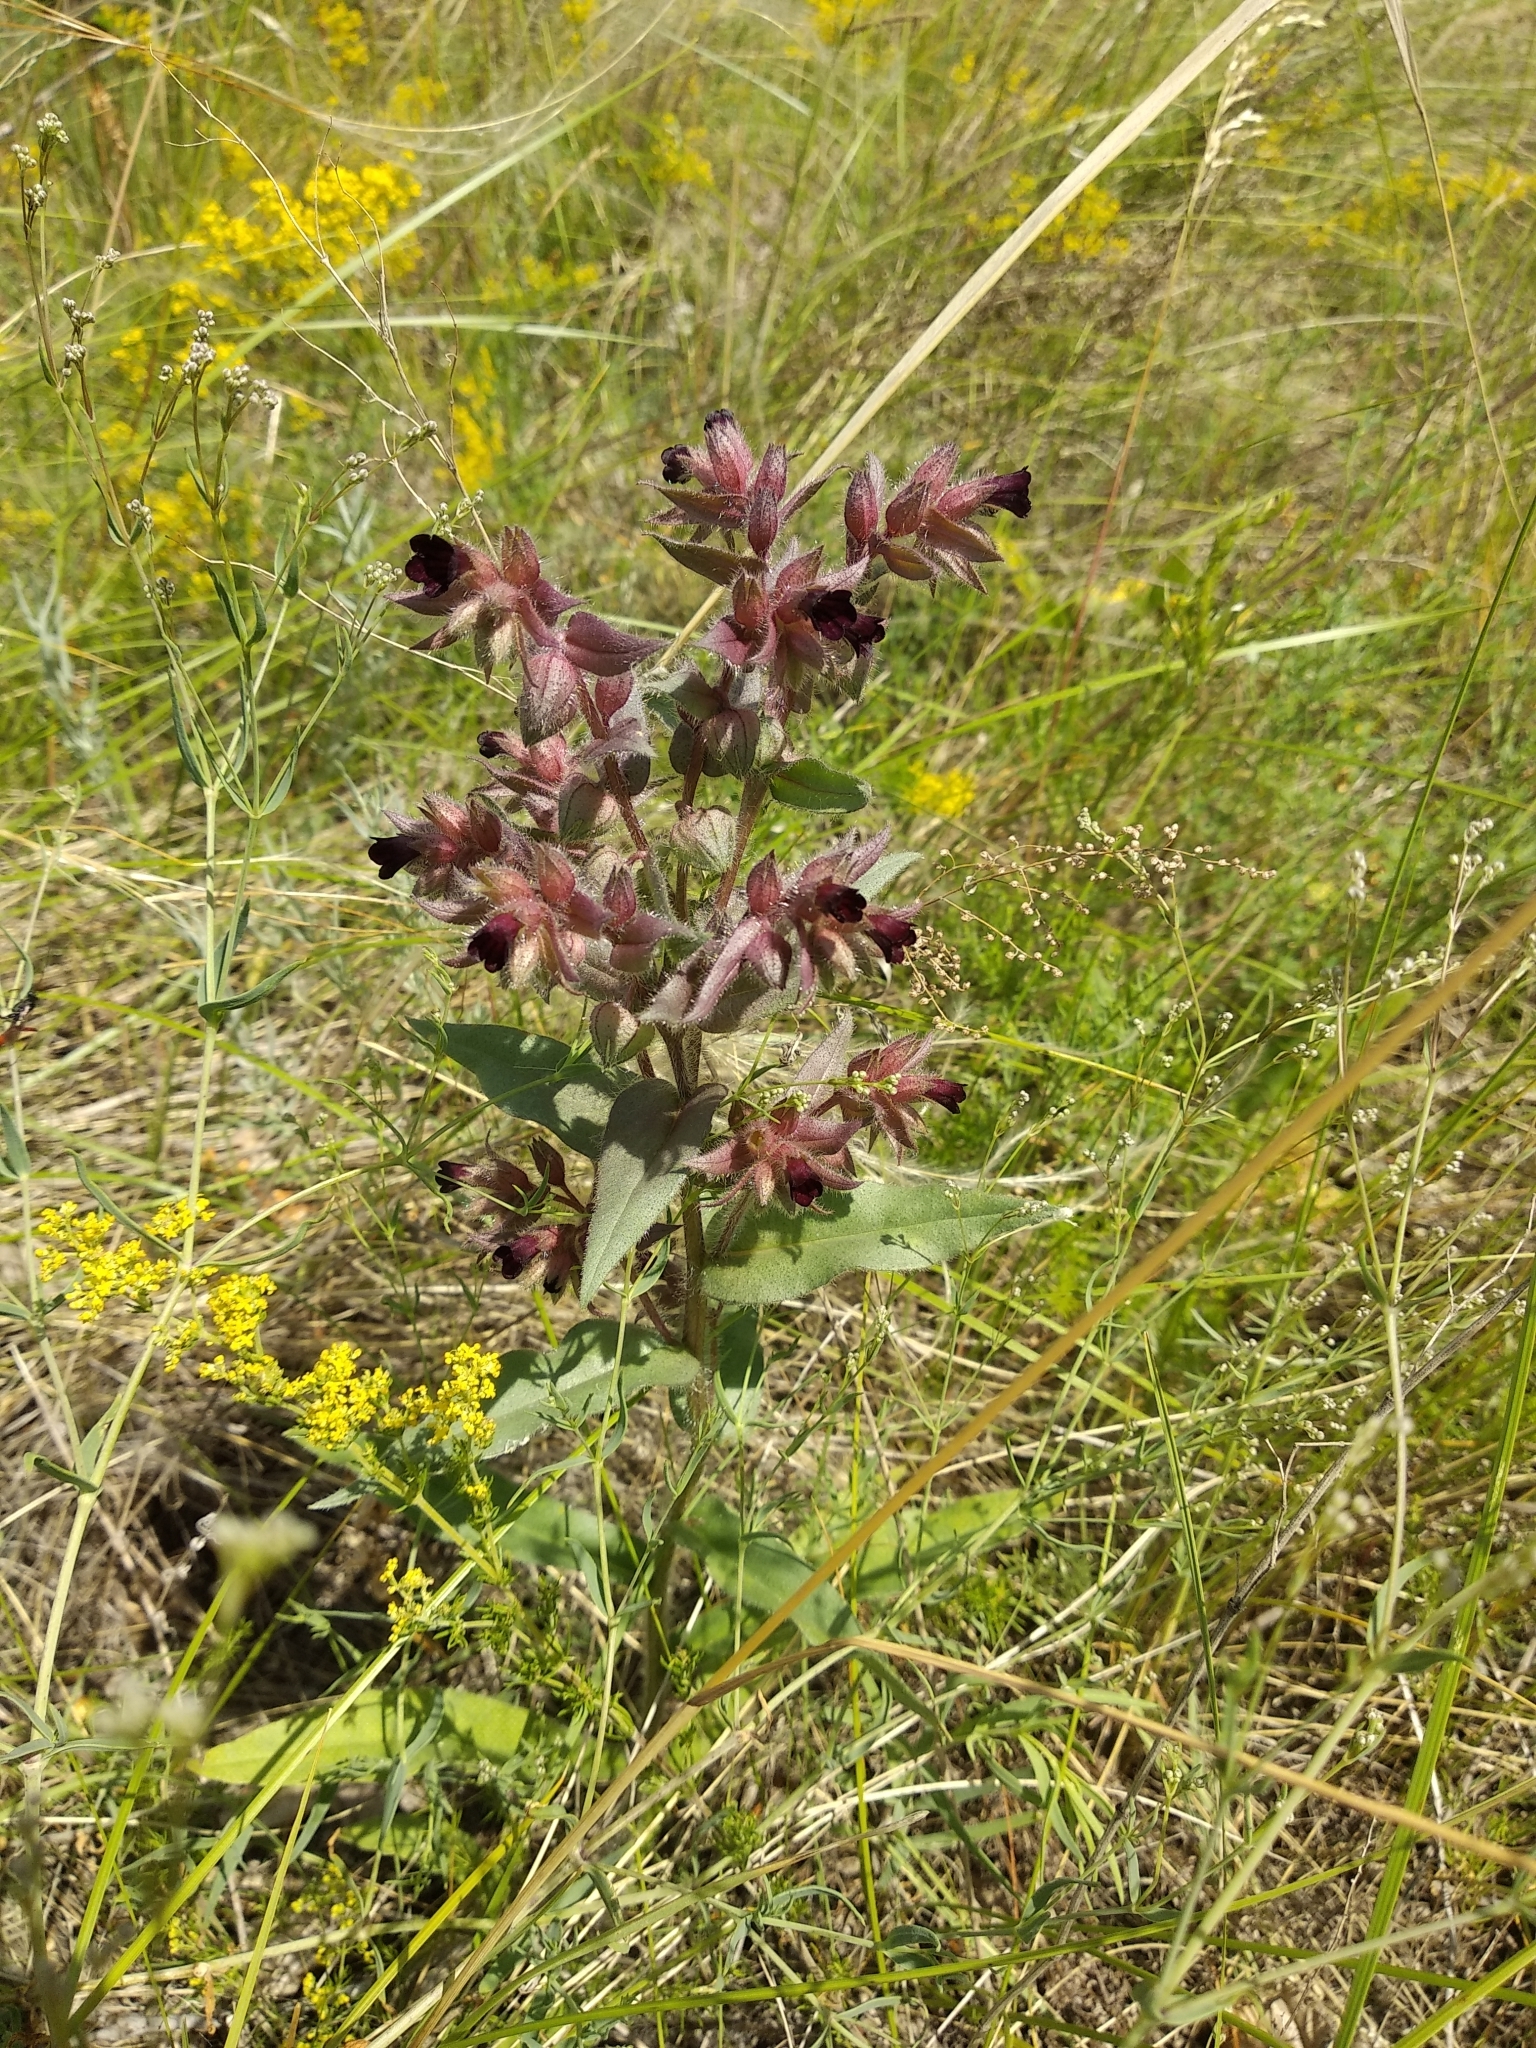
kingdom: Plantae
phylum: Tracheophyta
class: Magnoliopsida
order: Boraginales
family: Boraginaceae
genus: Nonea
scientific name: Nonea pulla
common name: Brown nonea
